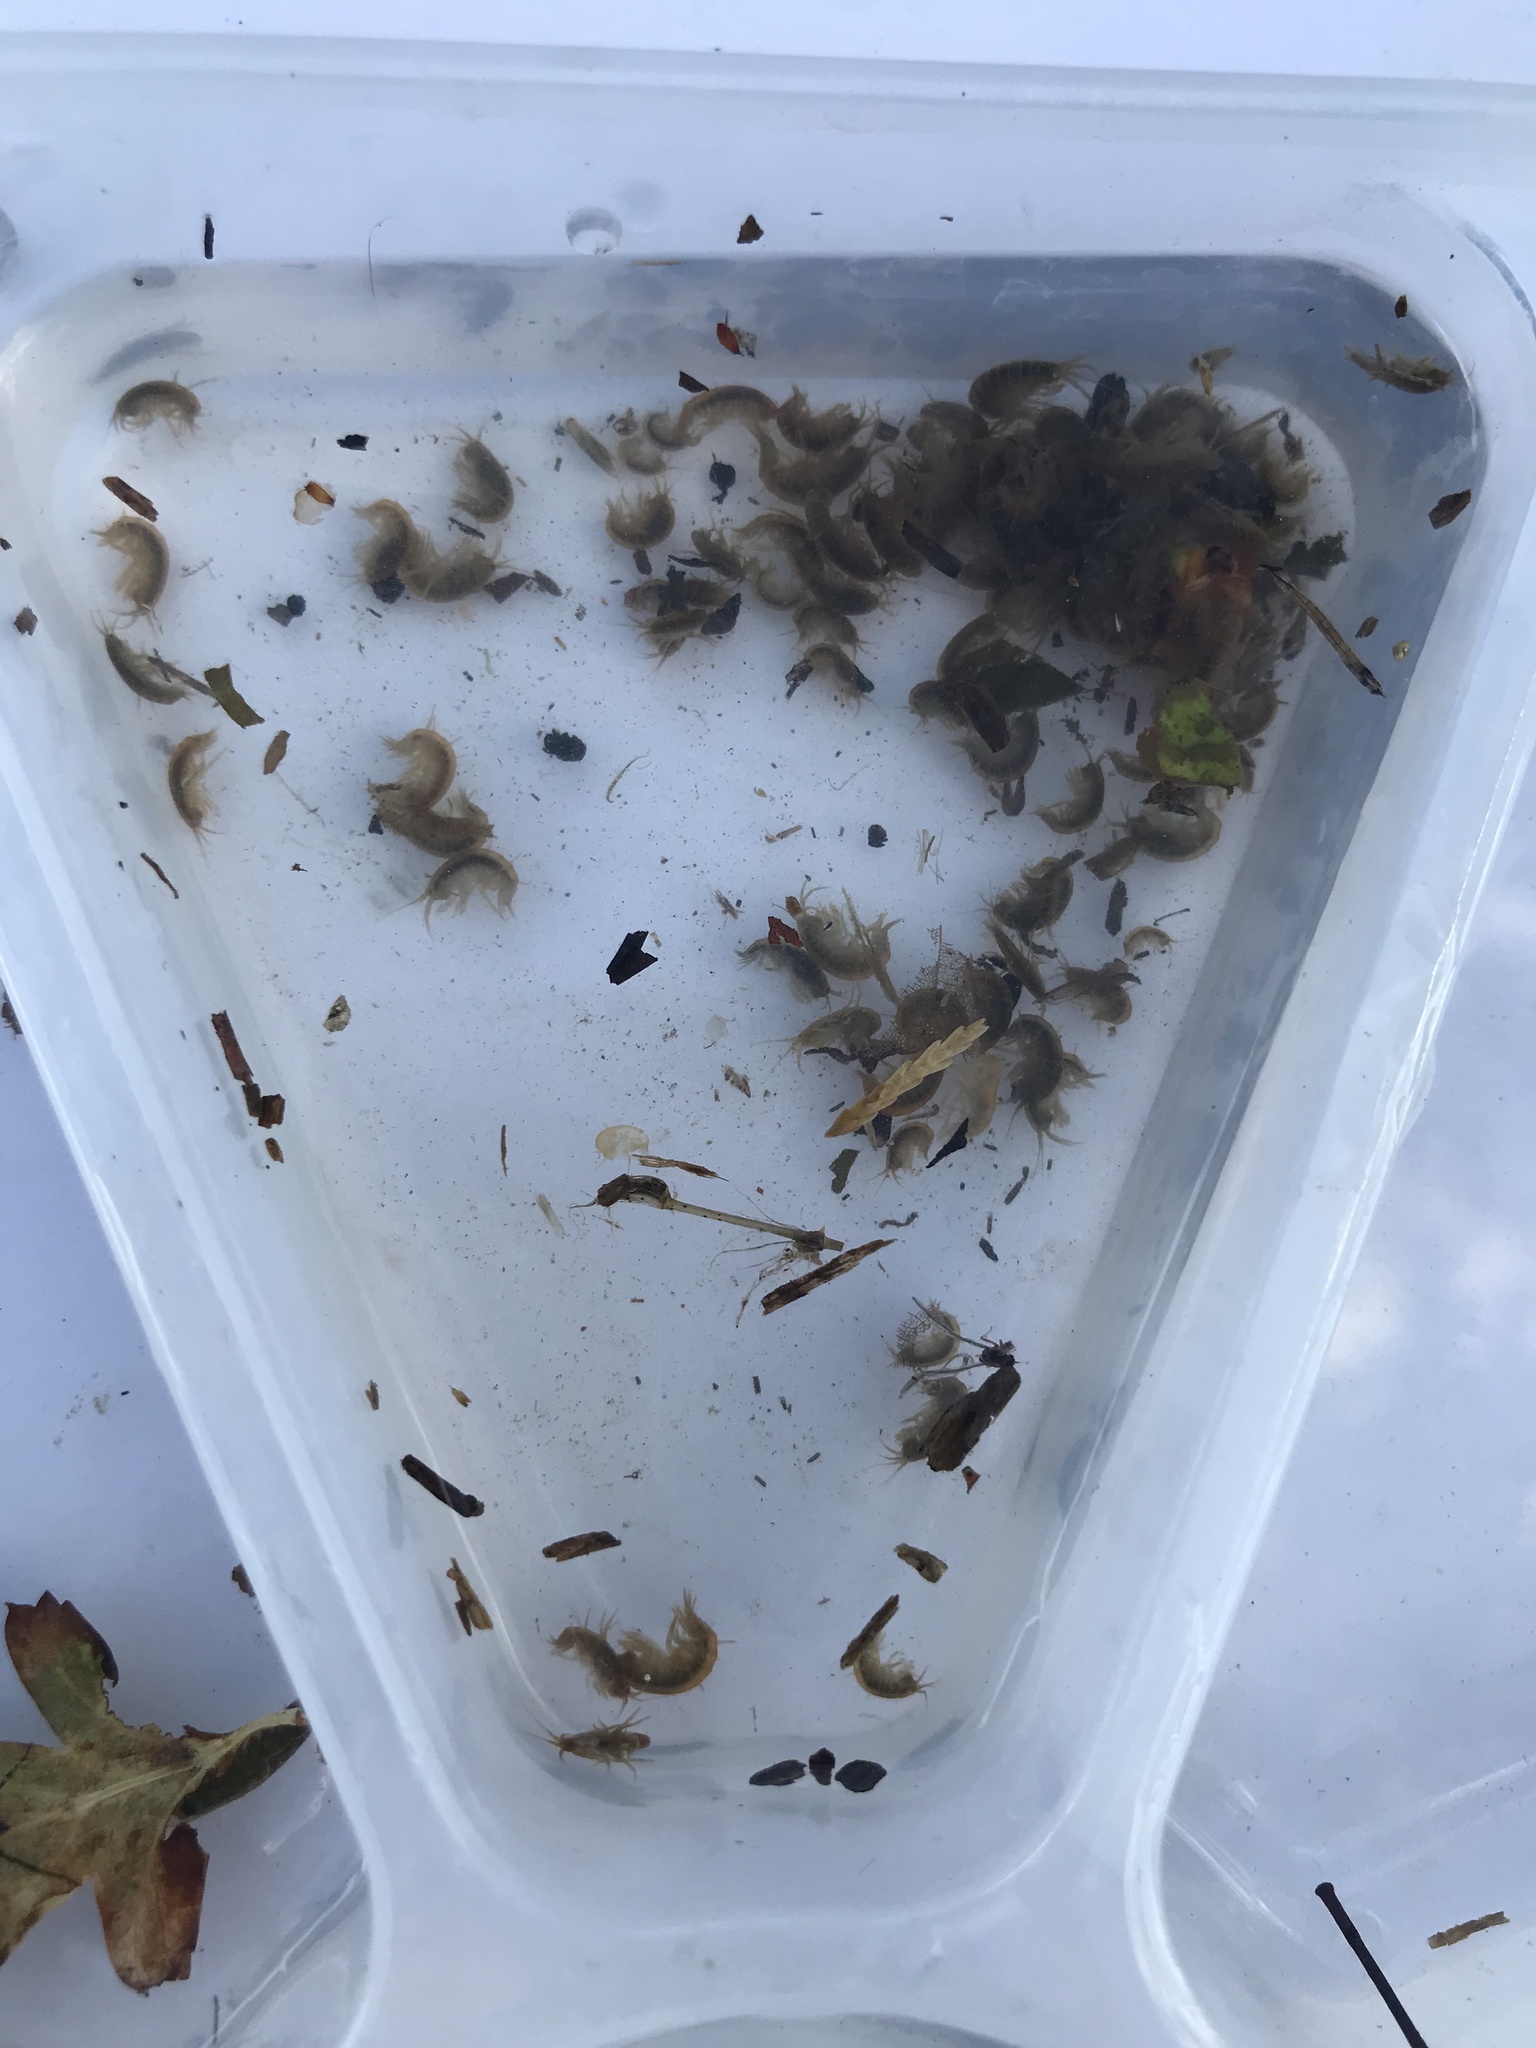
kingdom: Animalia
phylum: Arthropoda
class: Malacostraca
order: Amphipoda
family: Gammaridae
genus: Gammarus
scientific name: Gammarus pulex
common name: Common freshwater amphipod
